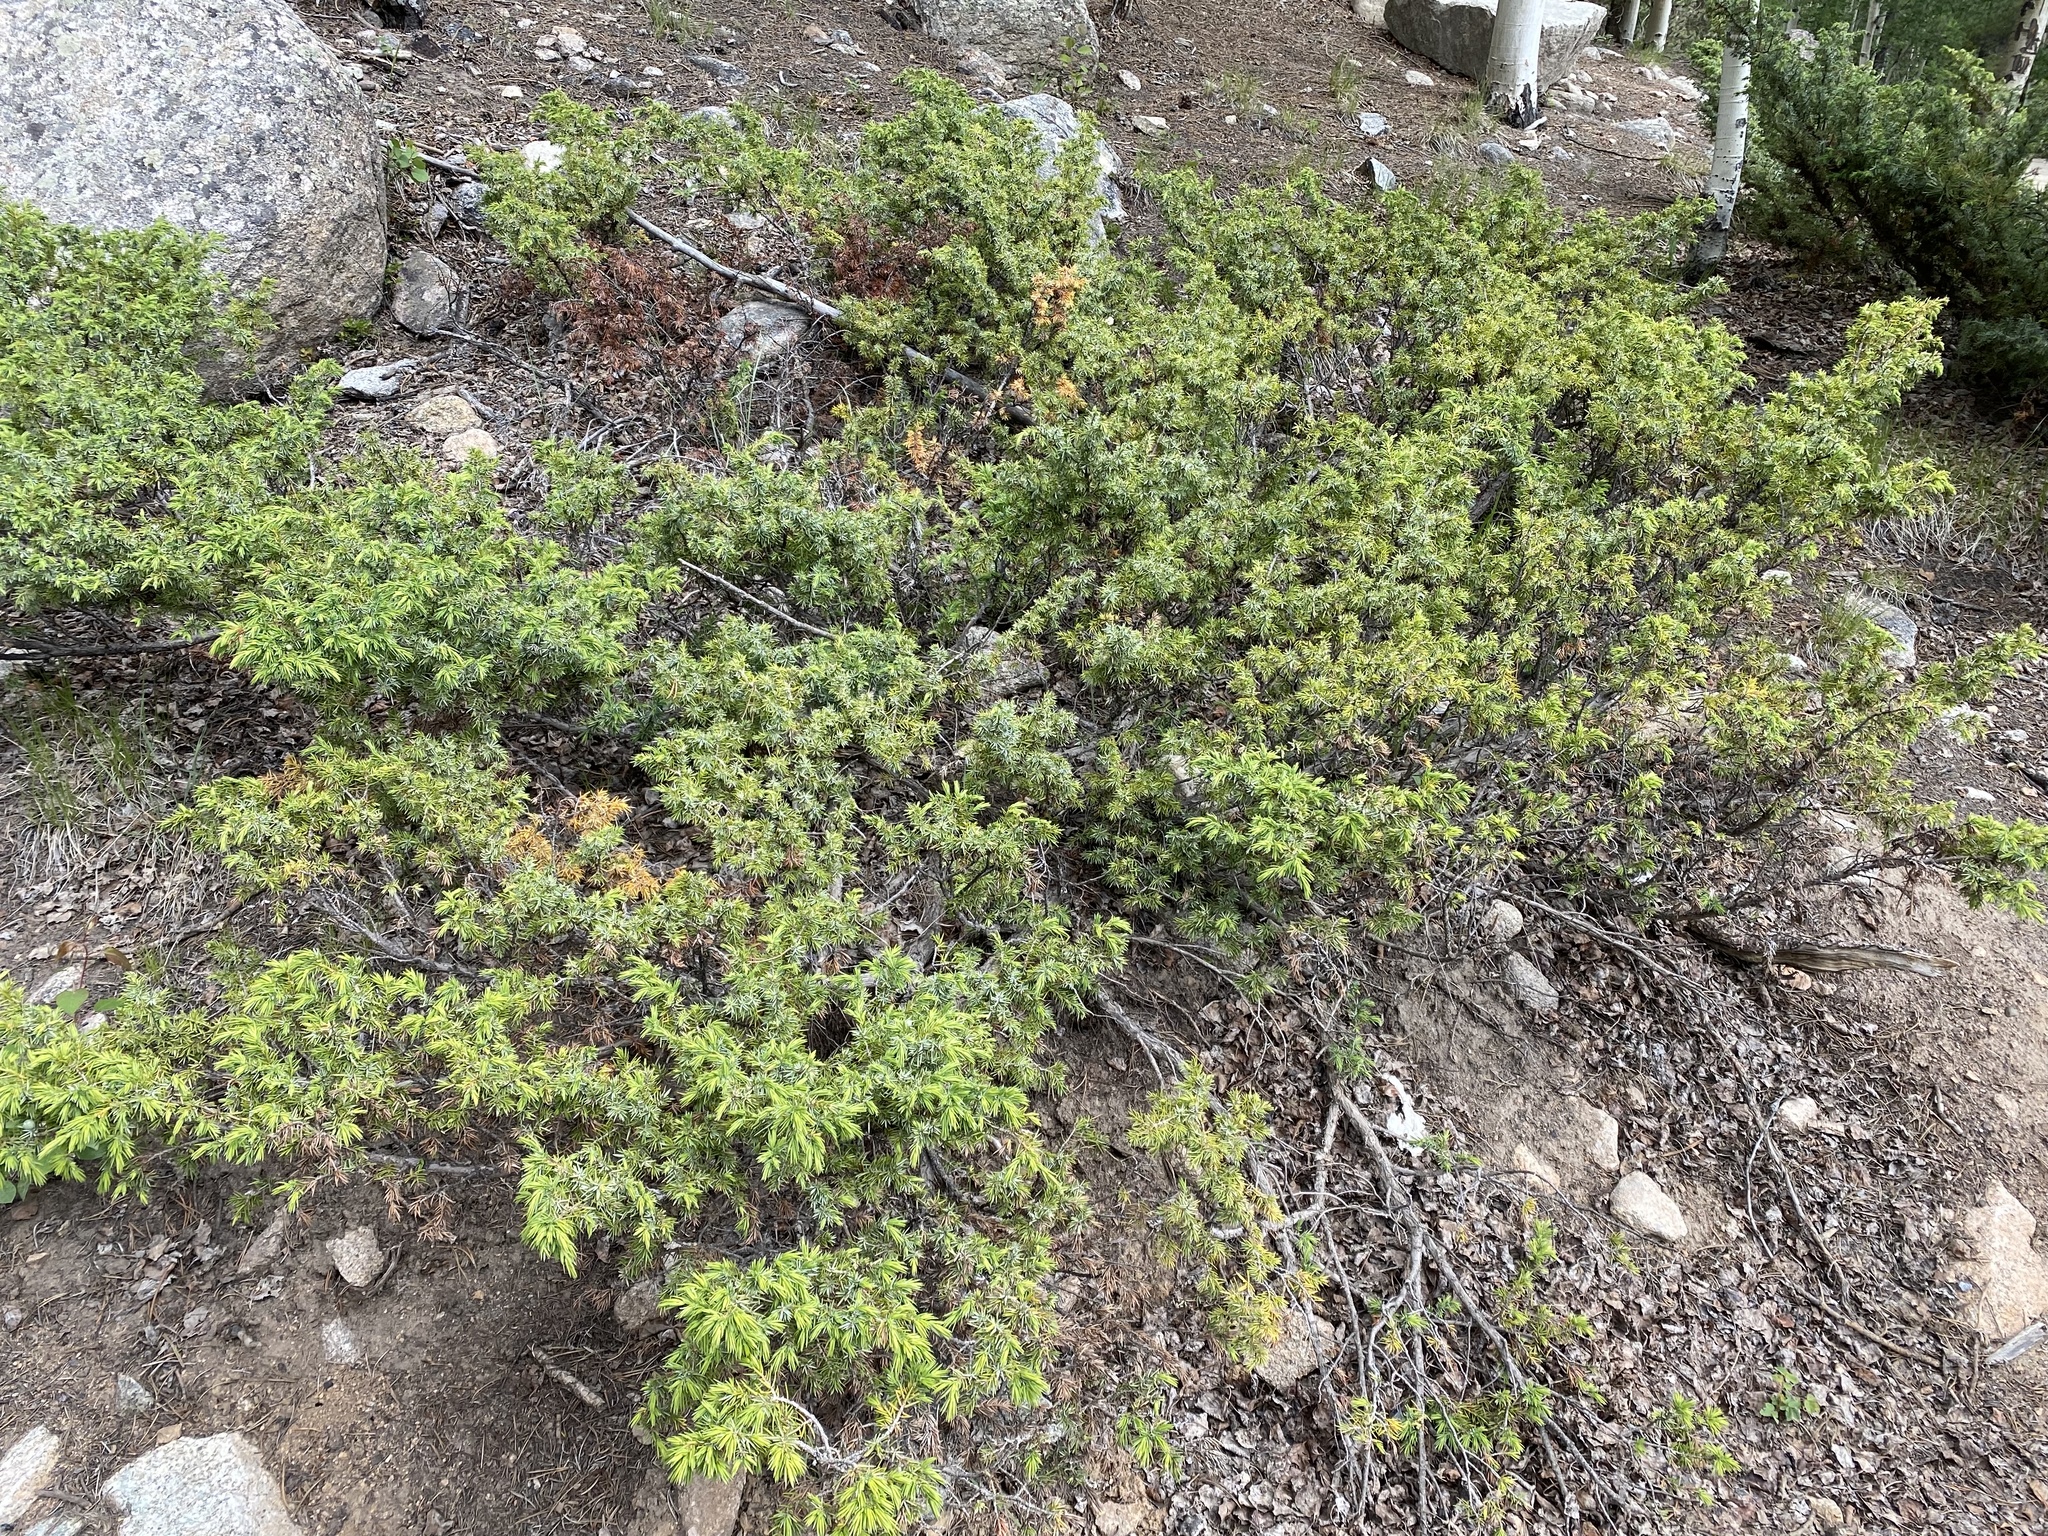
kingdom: Plantae
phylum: Tracheophyta
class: Pinopsida
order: Pinales
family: Cupressaceae
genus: Juniperus
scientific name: Juniperus communis
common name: Common juniper
